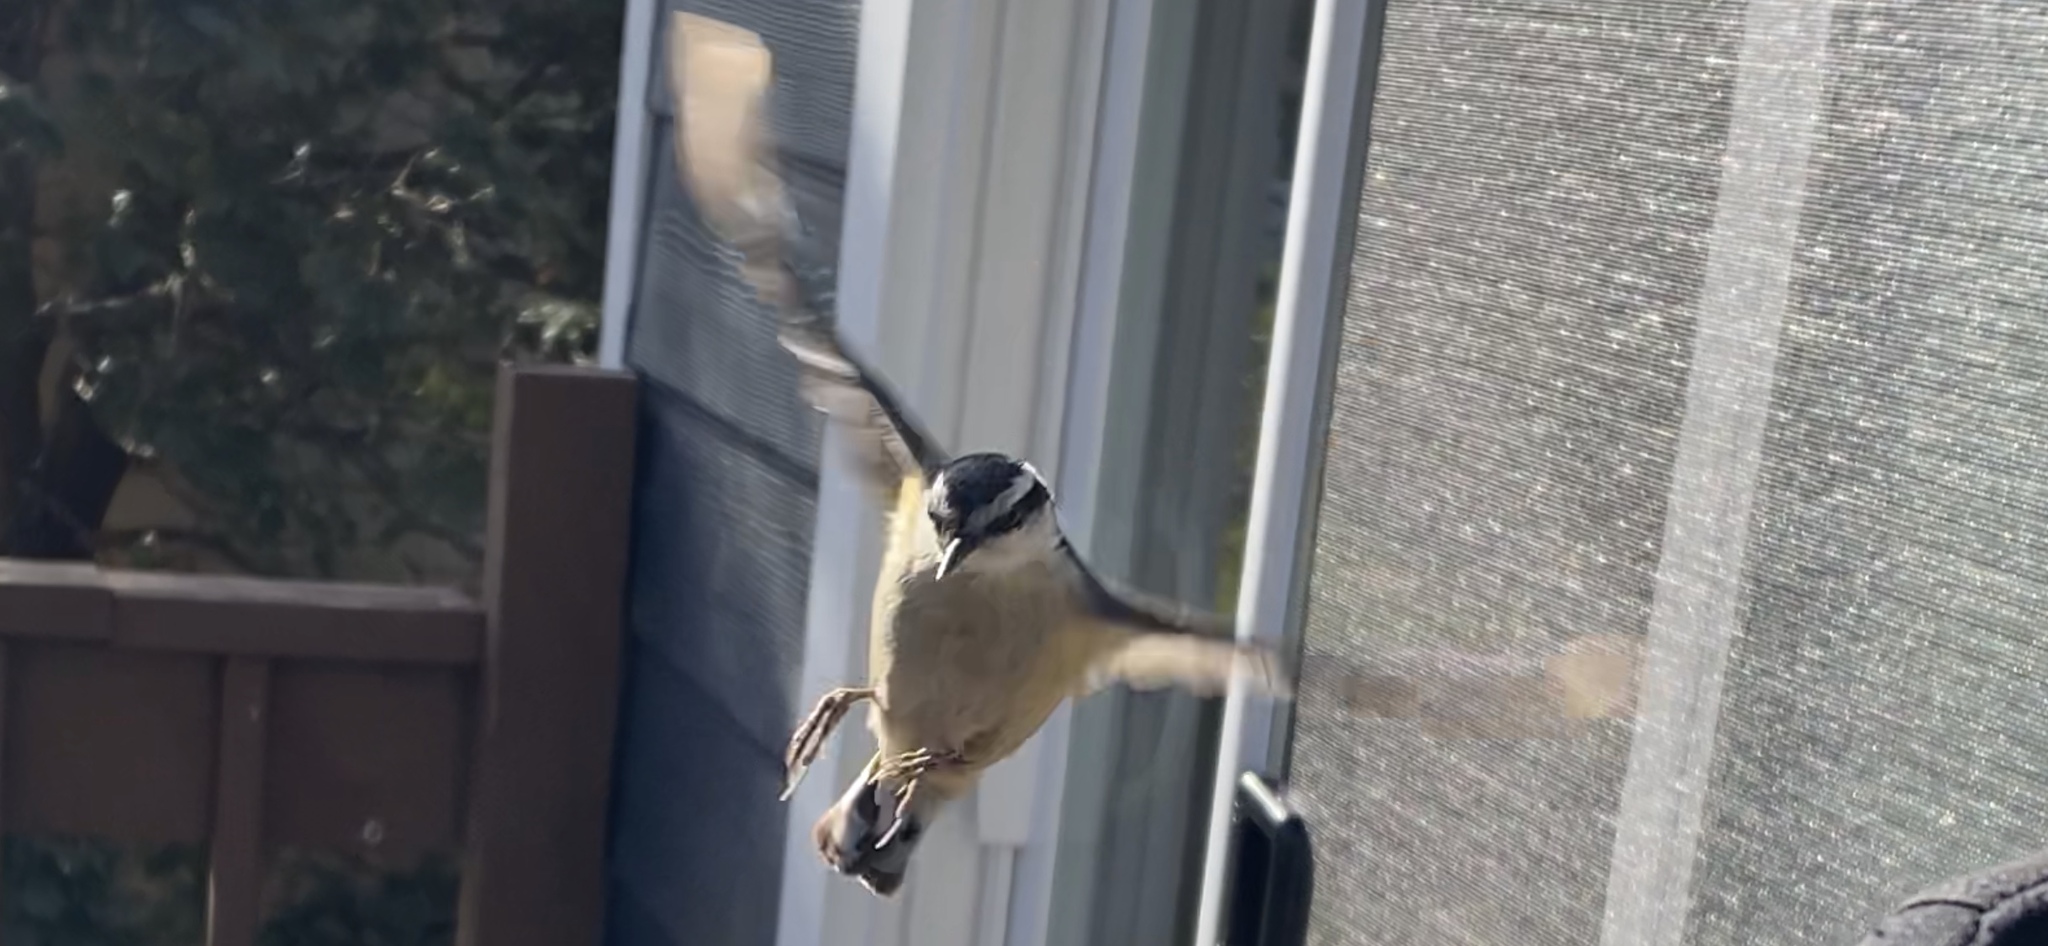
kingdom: Animalia
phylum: Chordata
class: Aves
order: Passeriformes
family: Sittidae
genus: Sitta
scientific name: Sitta canadensis
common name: Red-breasted nuthatch
